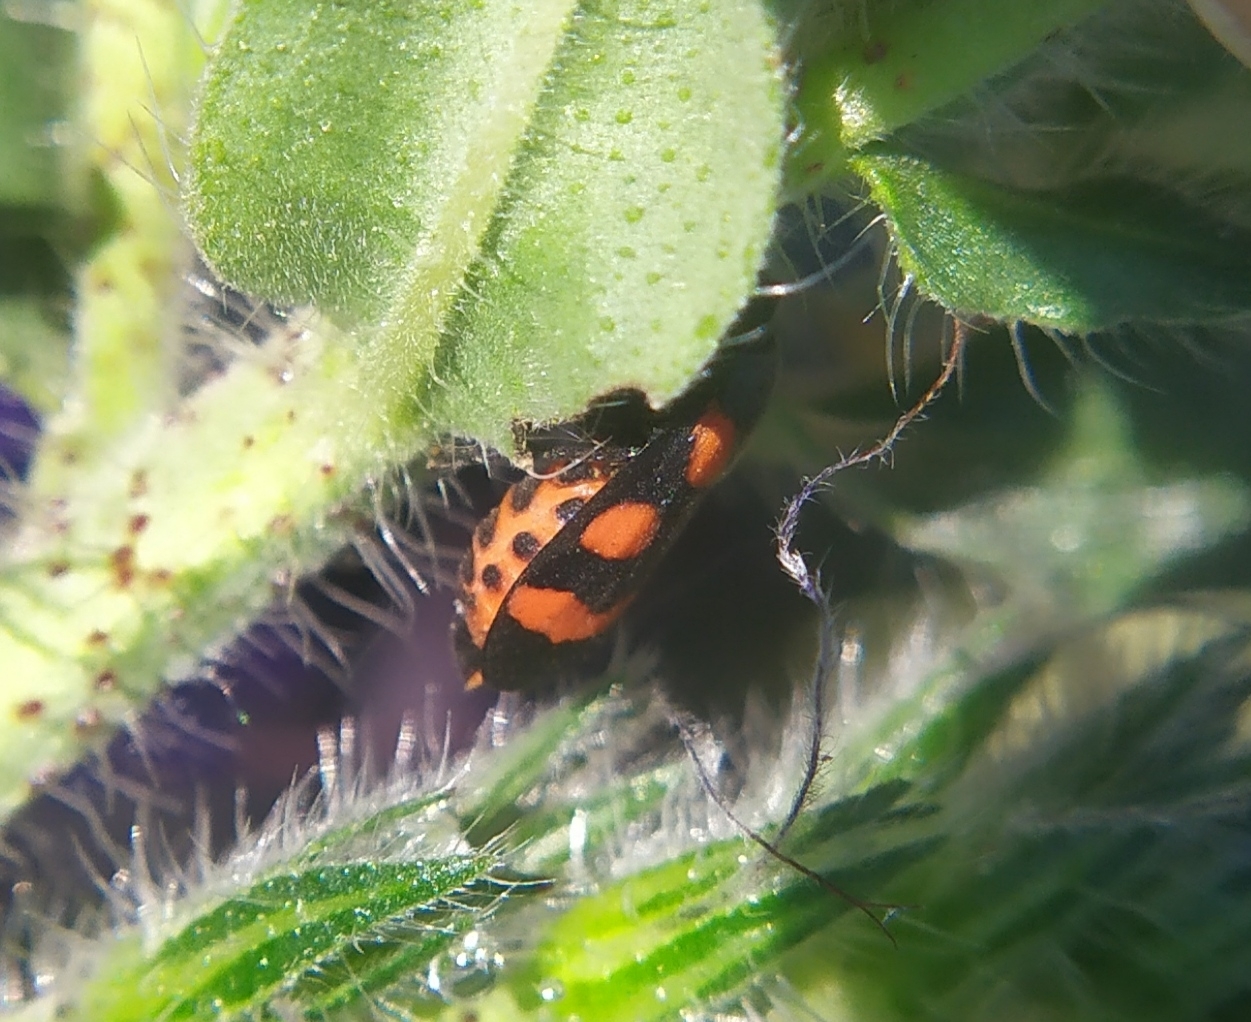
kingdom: Animalia
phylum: Arthropoda
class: Insecta
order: Hemiptera
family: Cercopidae
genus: Cercopis
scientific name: Cercopis sanguinolenta
